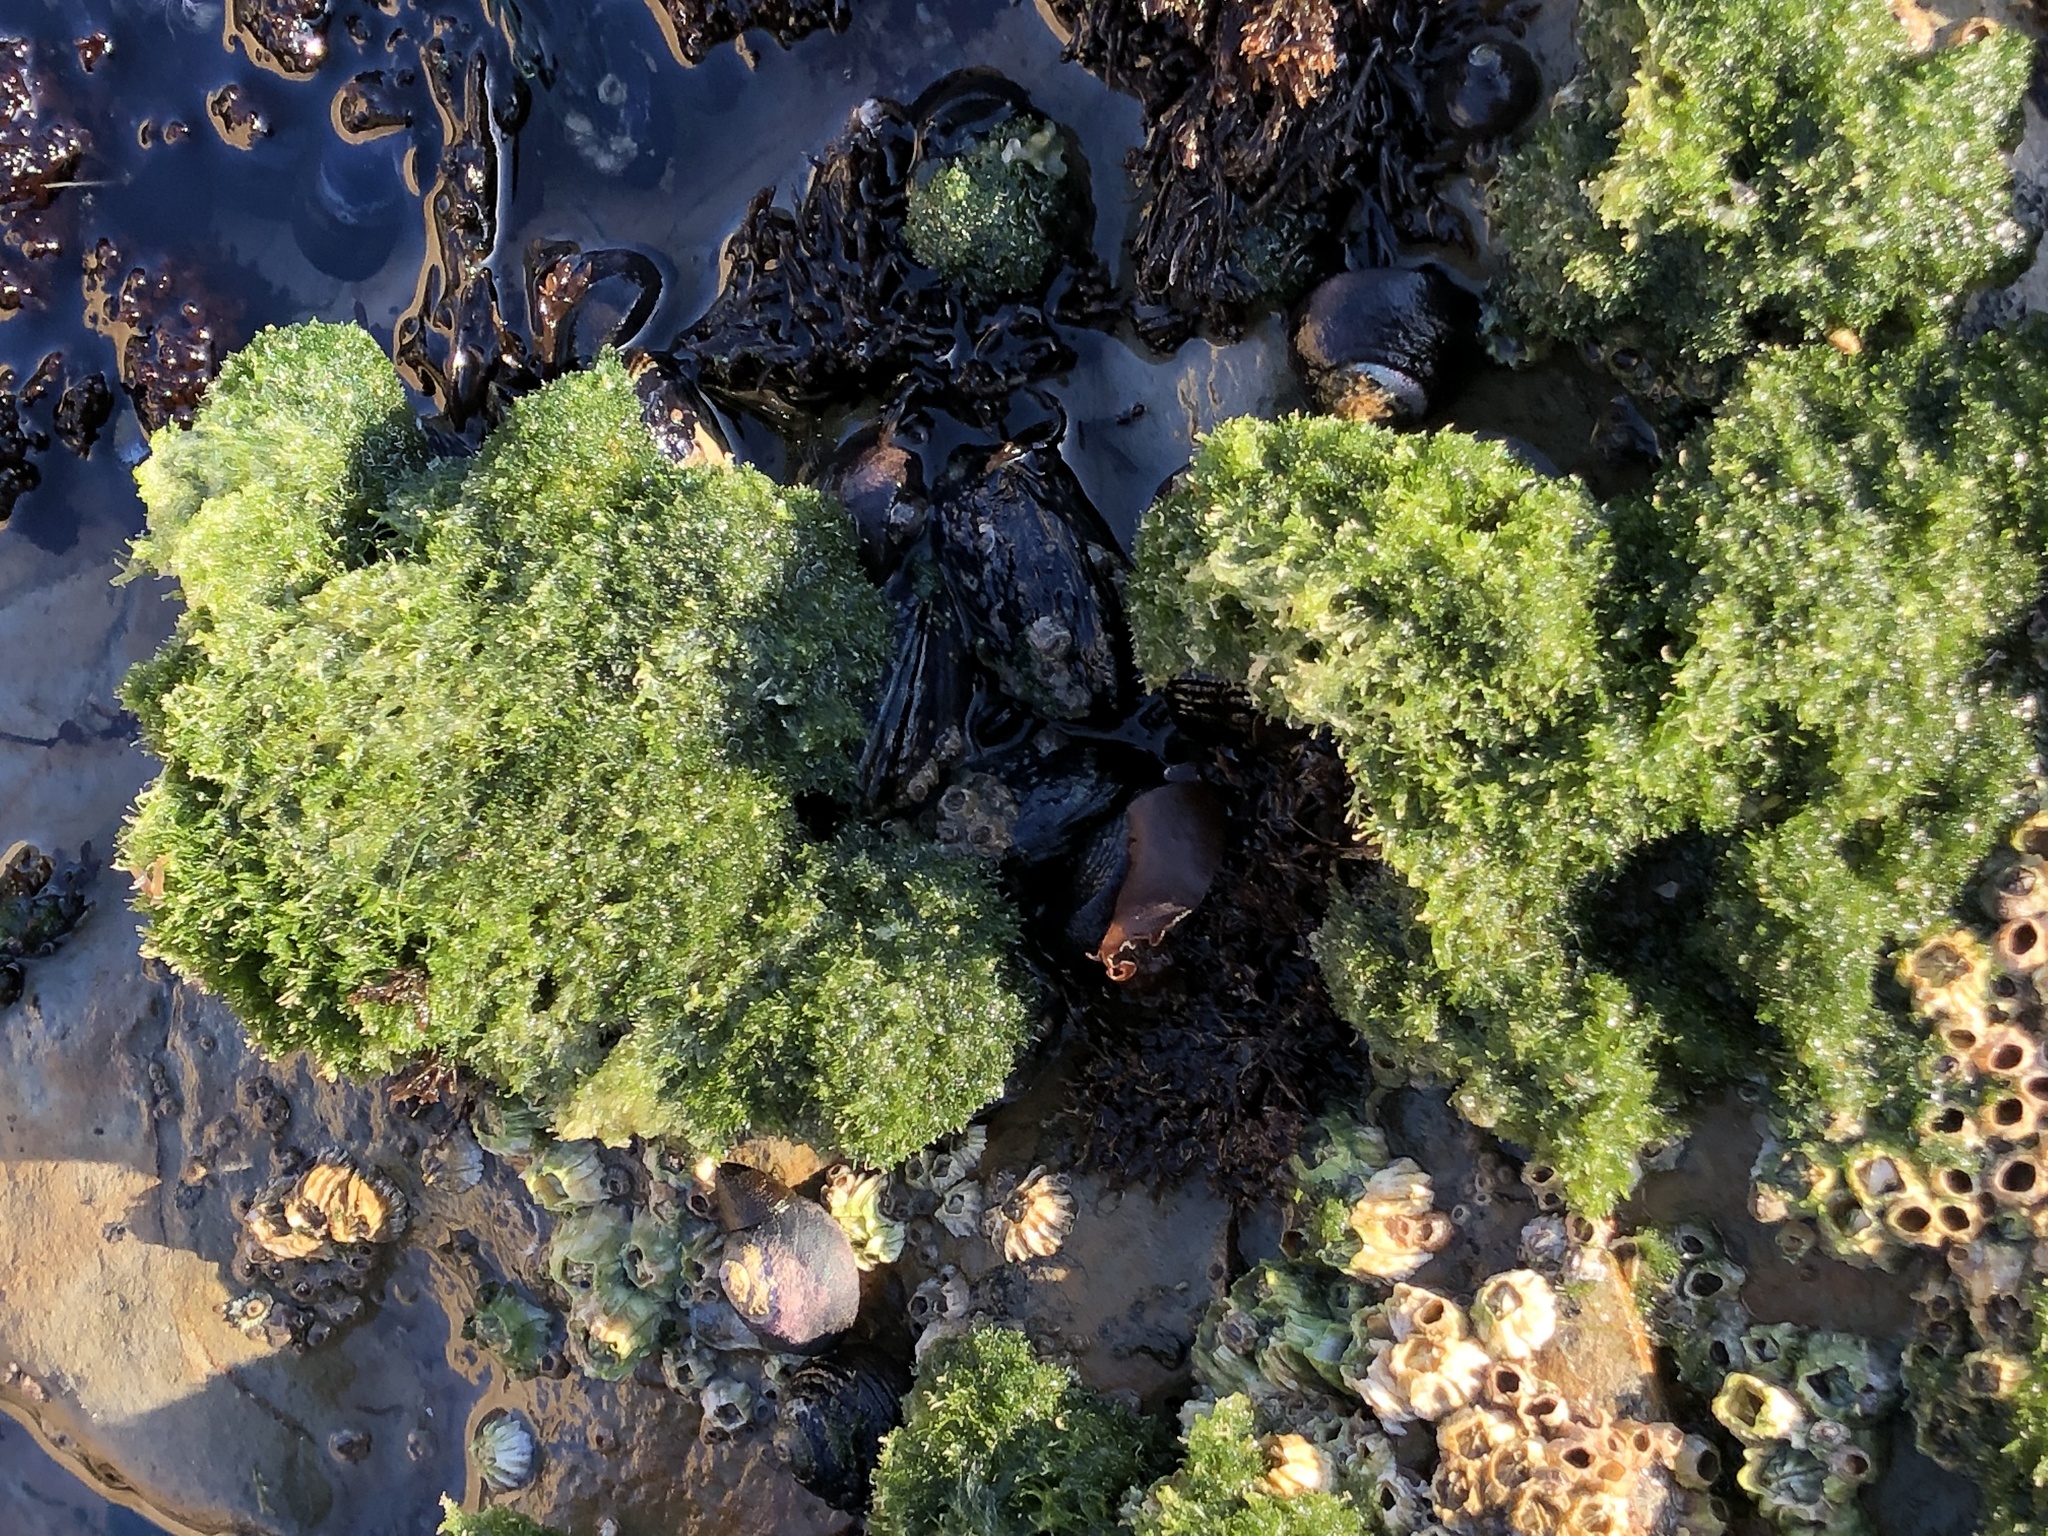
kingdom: Plantae
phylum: Chlorophyta
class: Ulvophyceae
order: Cladophorales
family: Cladophoraceae
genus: Cladophora
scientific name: Cladophora columbiana
